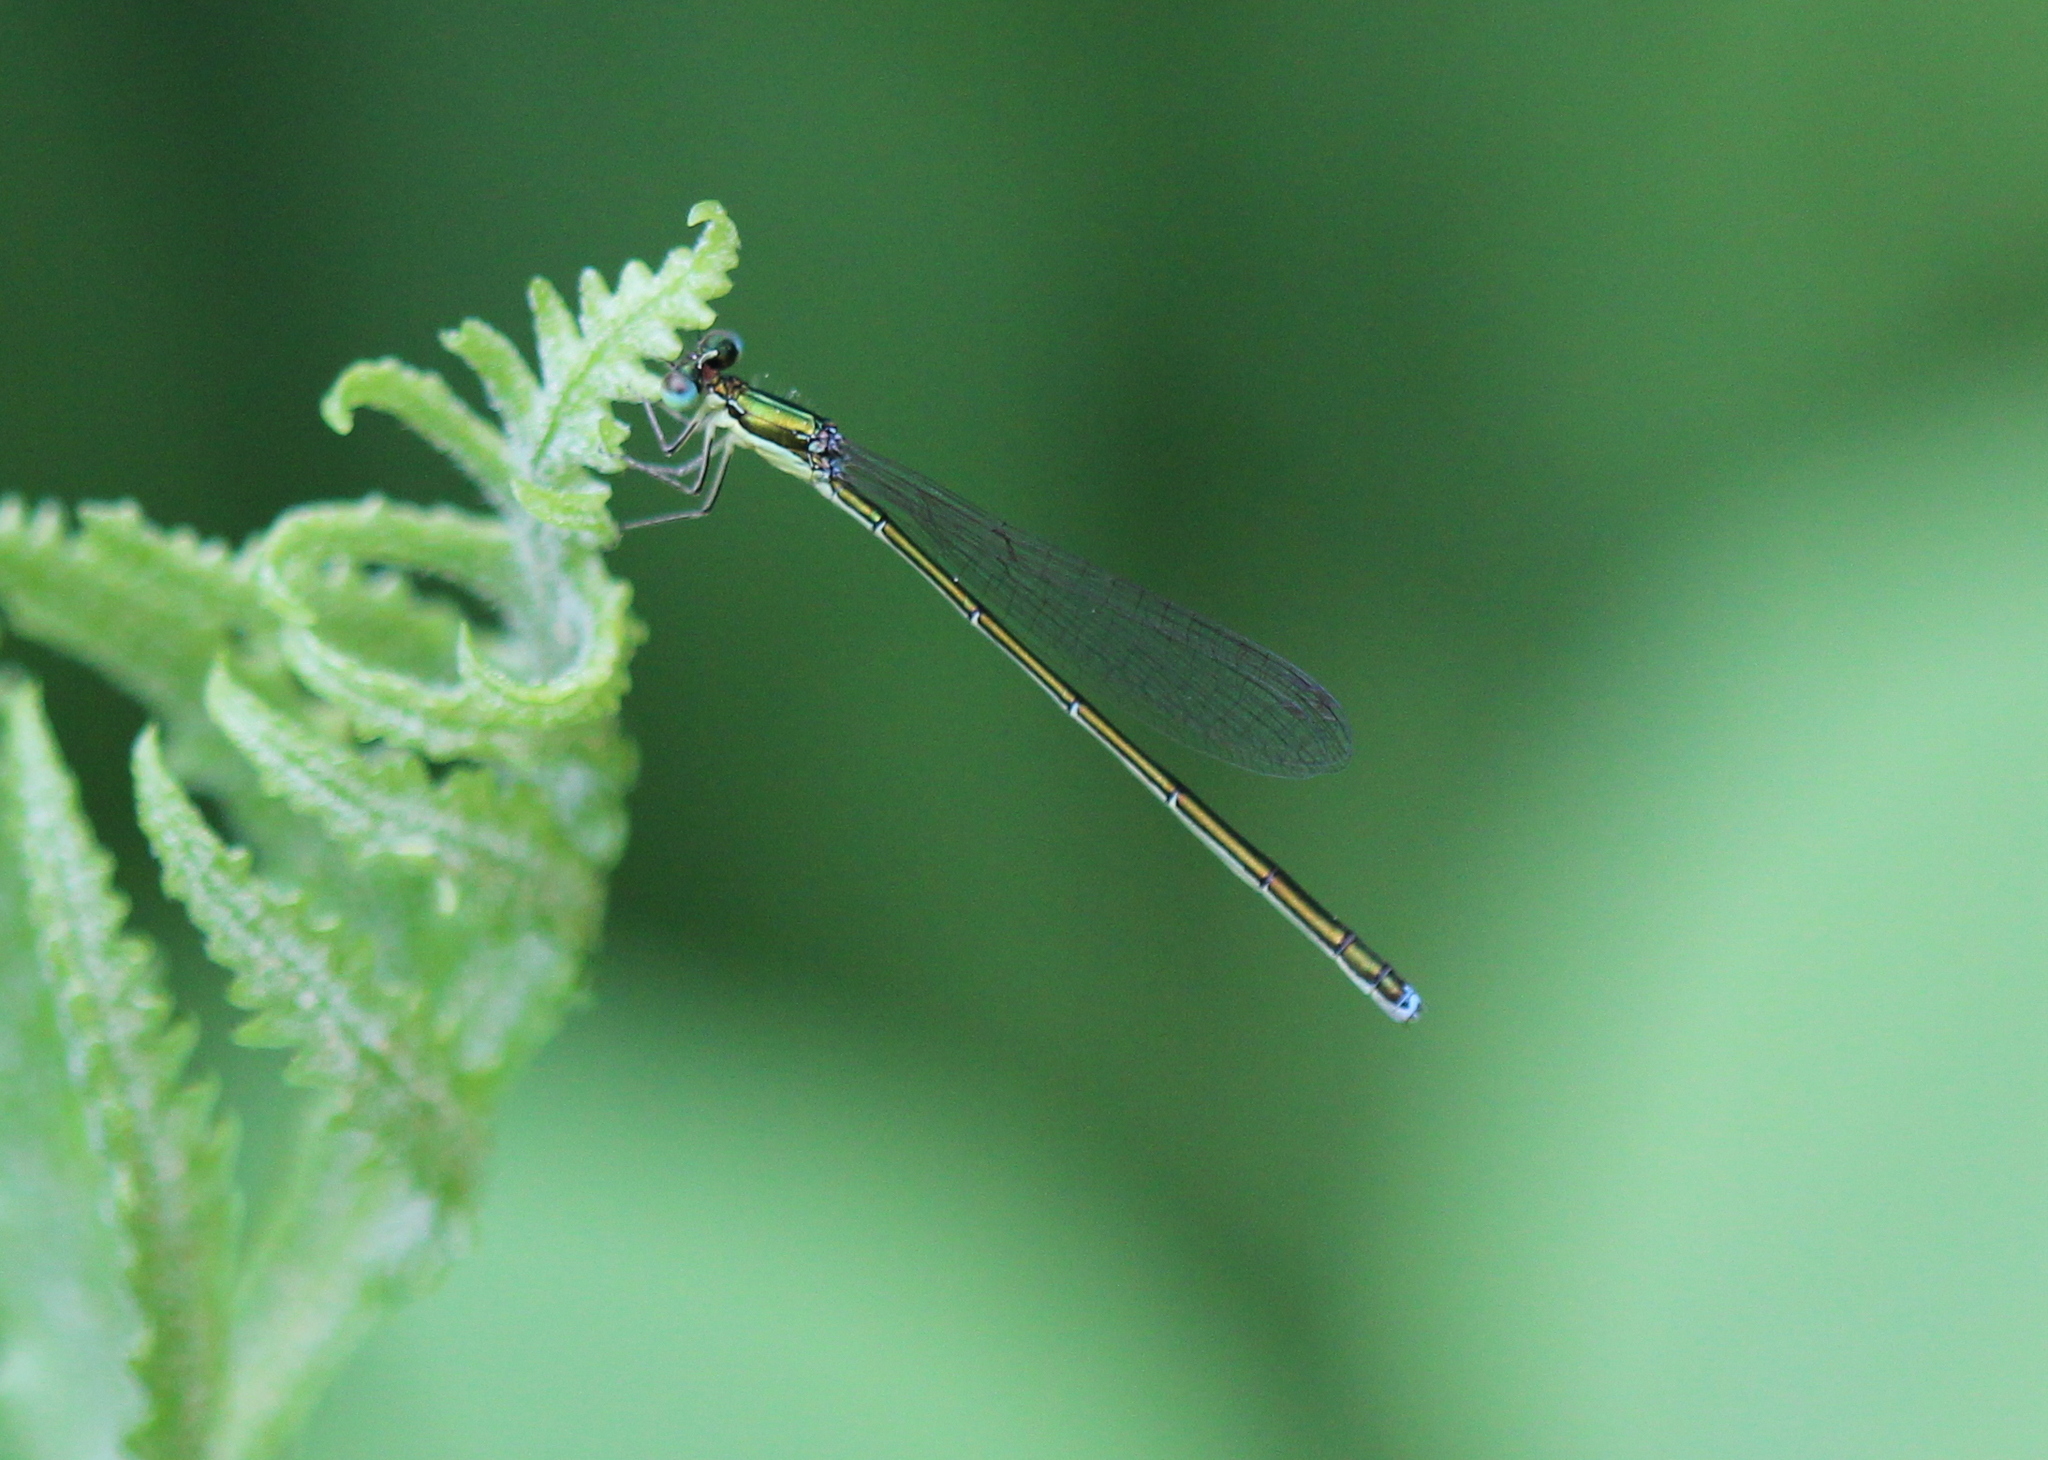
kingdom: Animalia
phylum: Arthropoda
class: Insecta
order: Odonata
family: Coenagrionidae
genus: Nehalennia
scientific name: Nehalennia irene
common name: Sedge sprite
